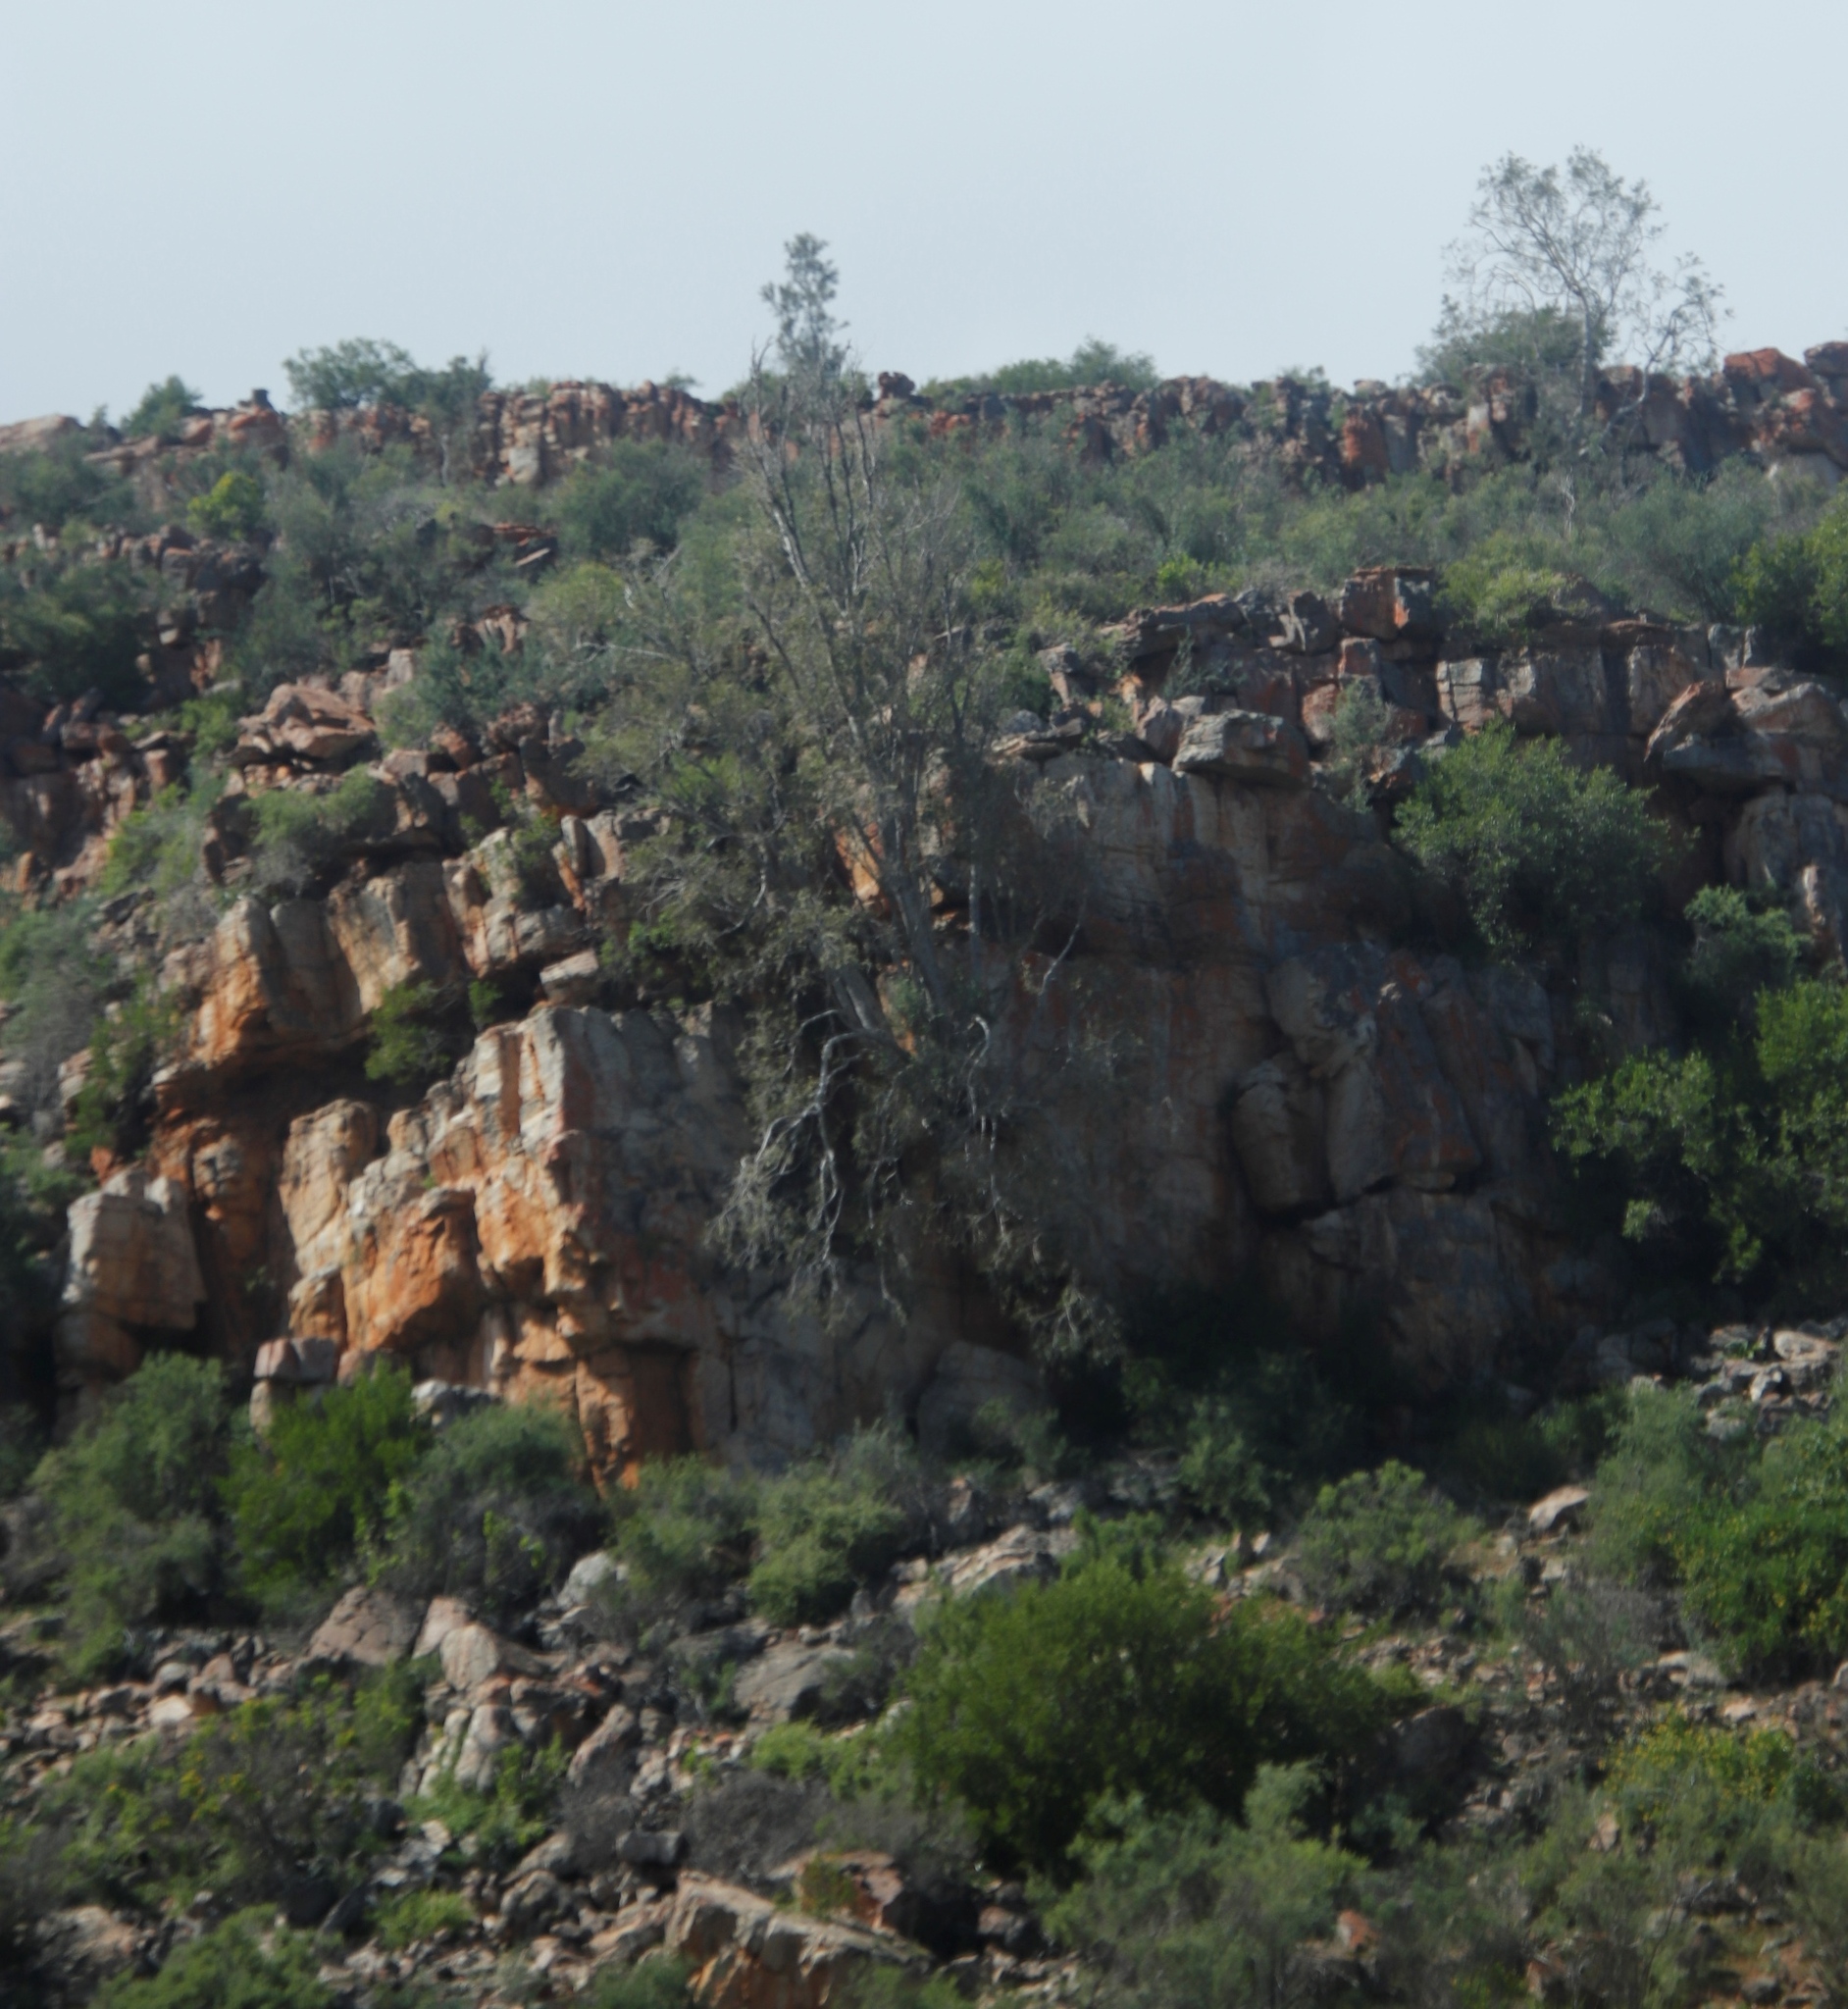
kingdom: Plantae
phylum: Tracheophyta
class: Magnoliopsida
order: Rosales
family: Moraceae
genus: Ficus
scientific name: Ficus cordata
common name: Namaqua rock fig
